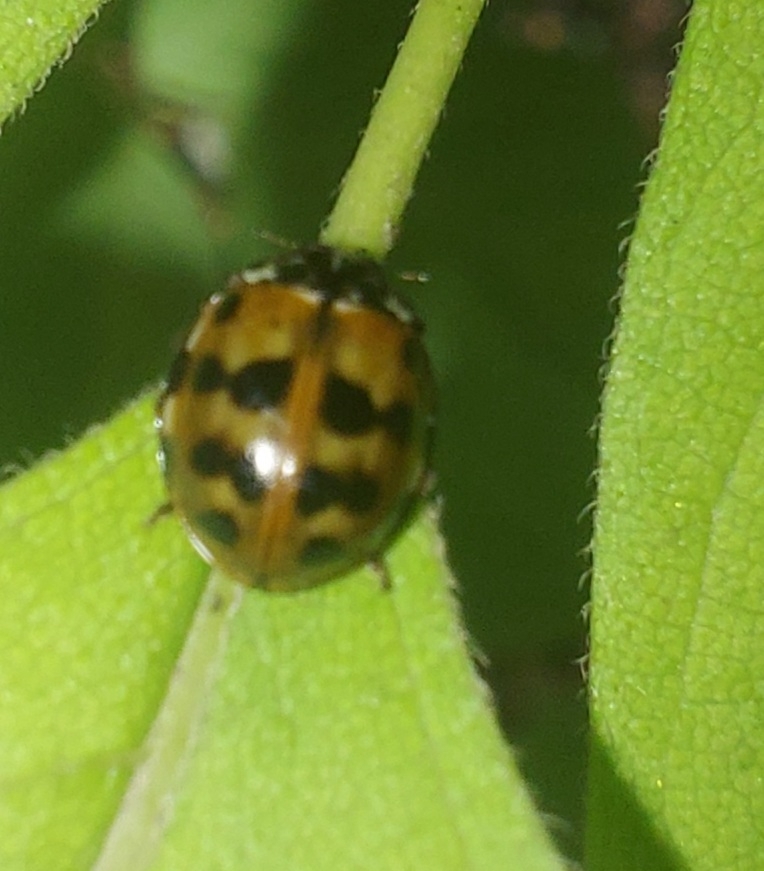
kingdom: Animalia
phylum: Arthropoda
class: Insecta
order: Coleoptera
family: Coccinellidae
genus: Harmonia
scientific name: Harmonia quadripunctata
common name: Cream-streaked ladybird
